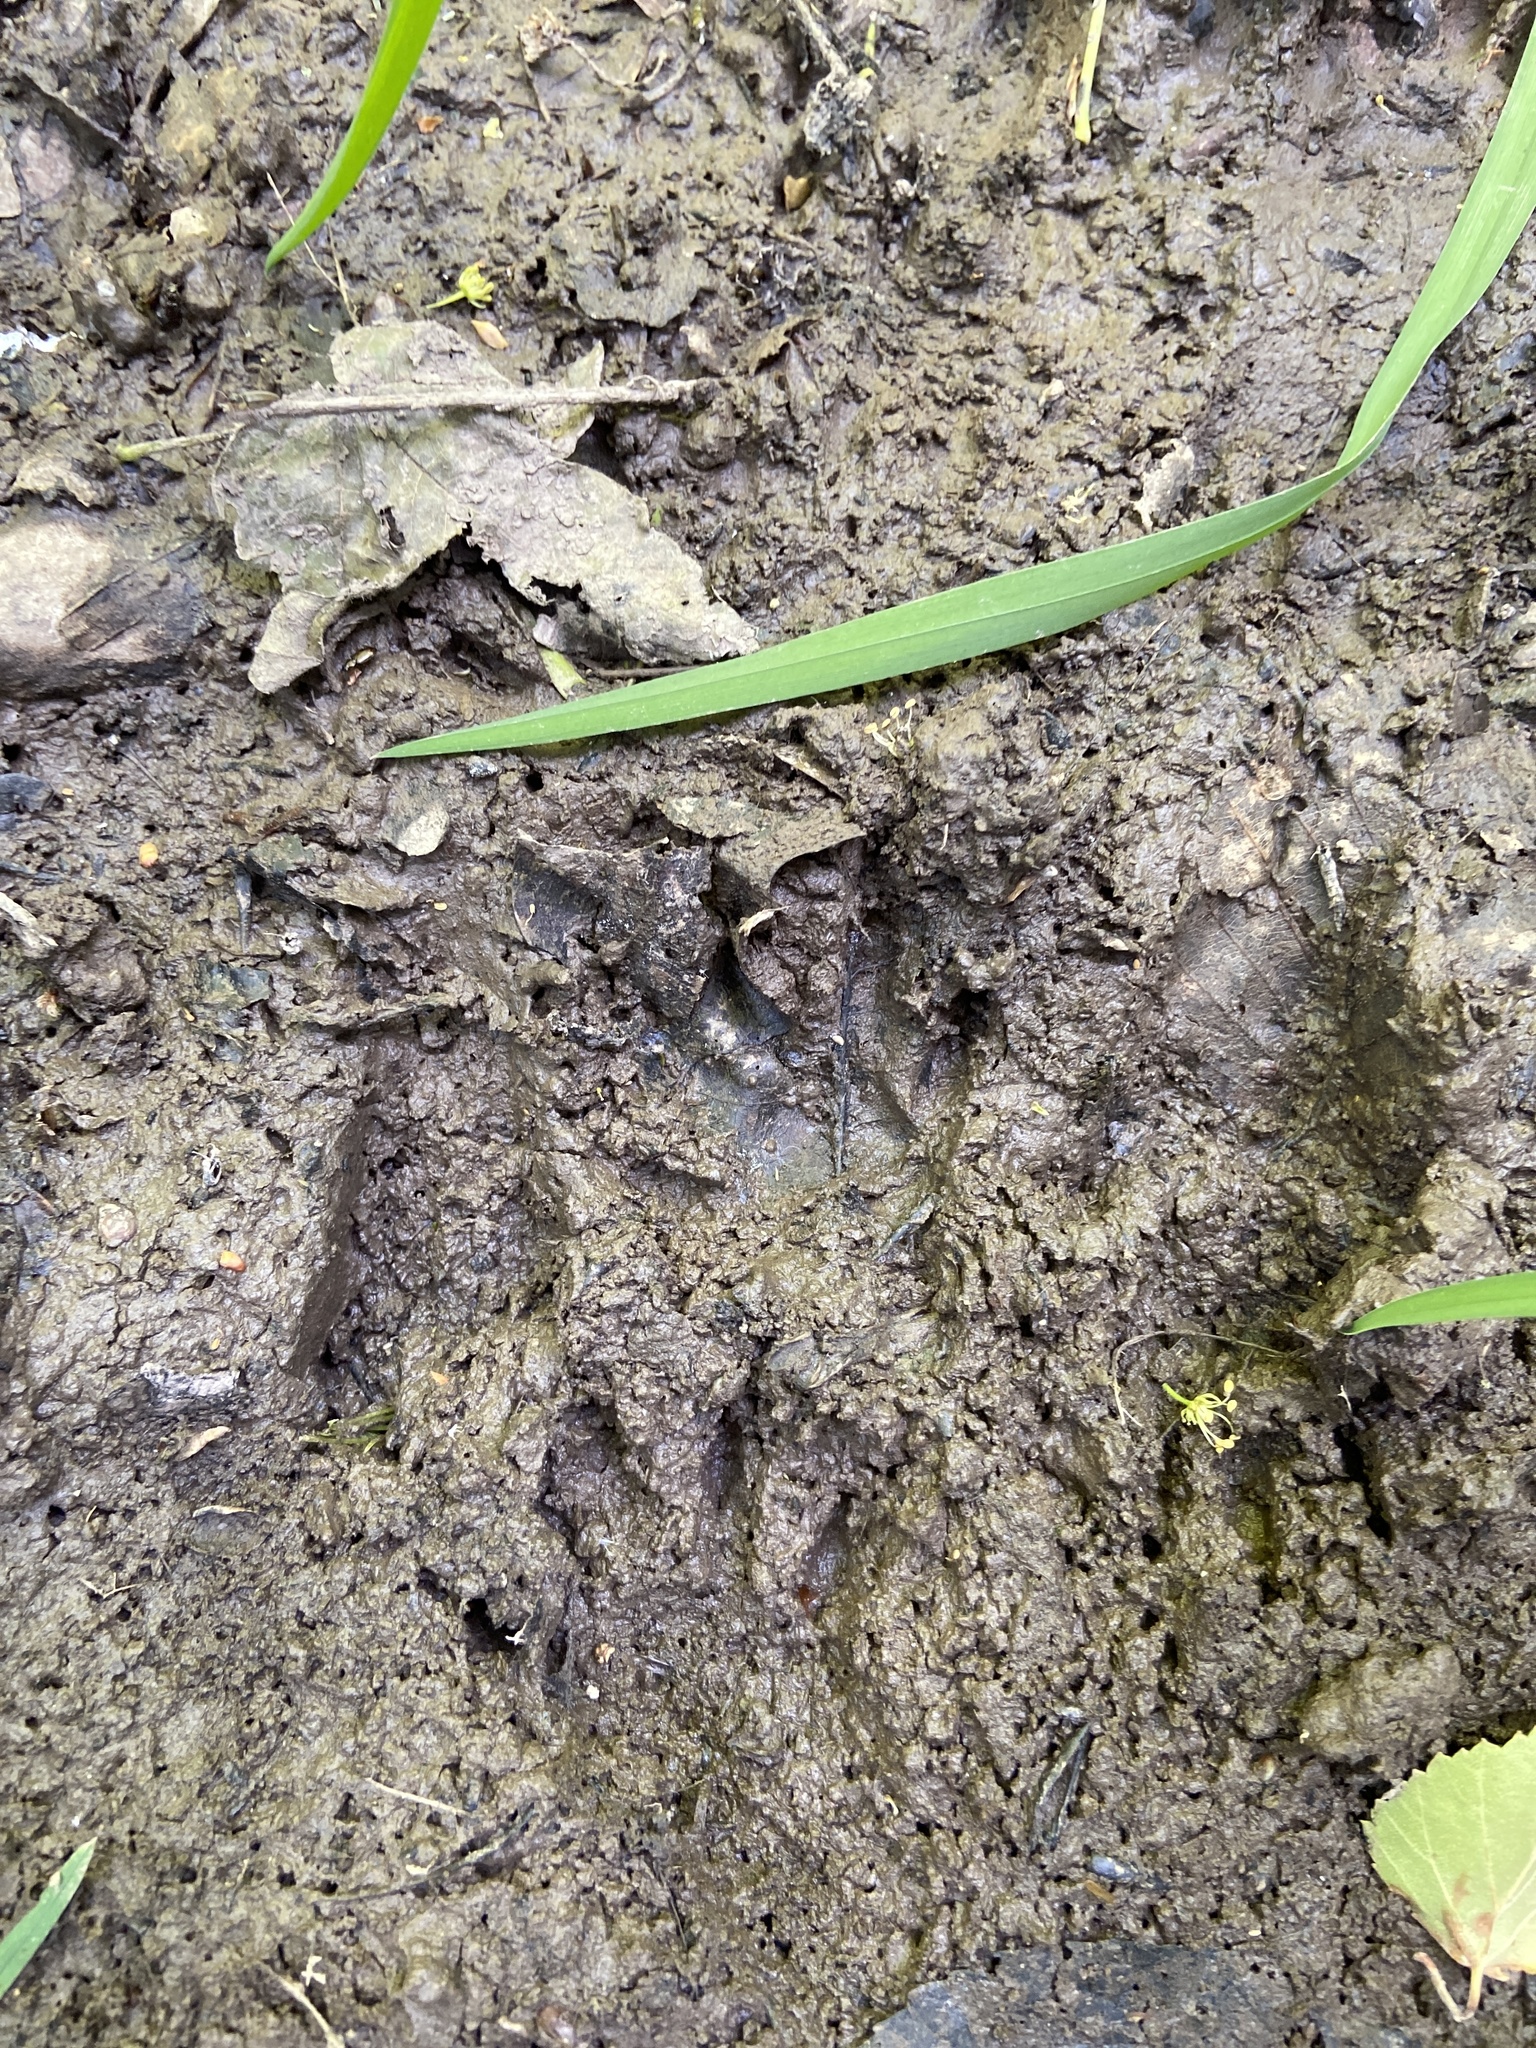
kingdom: Animalia
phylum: Chordata
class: Mammalia
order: Carnivora
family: Procyonidae
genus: Procyon
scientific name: Procyon lotor
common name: Raccoon
